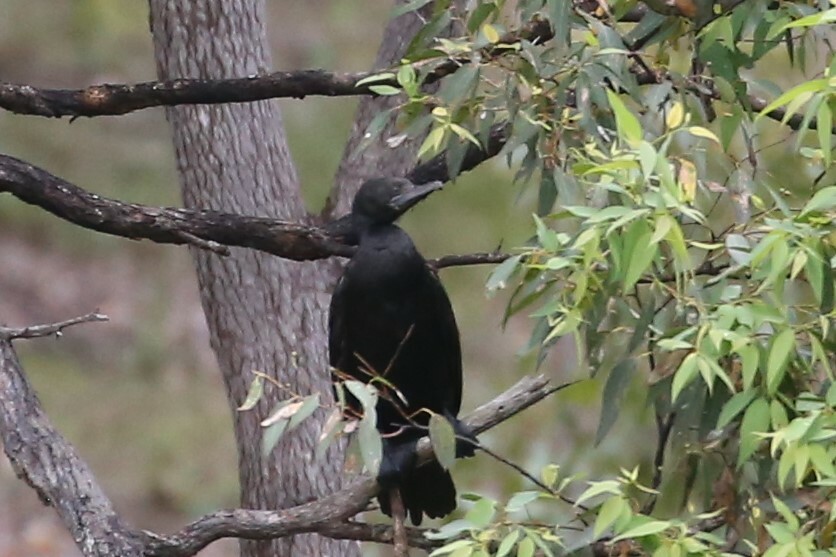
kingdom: Animalia
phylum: Chordata
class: Aves
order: Suliformes
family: Phalacrocoracidae
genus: Phalacrocorax
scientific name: Phalacrocorax sulcirostris
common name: Little black cormorant
